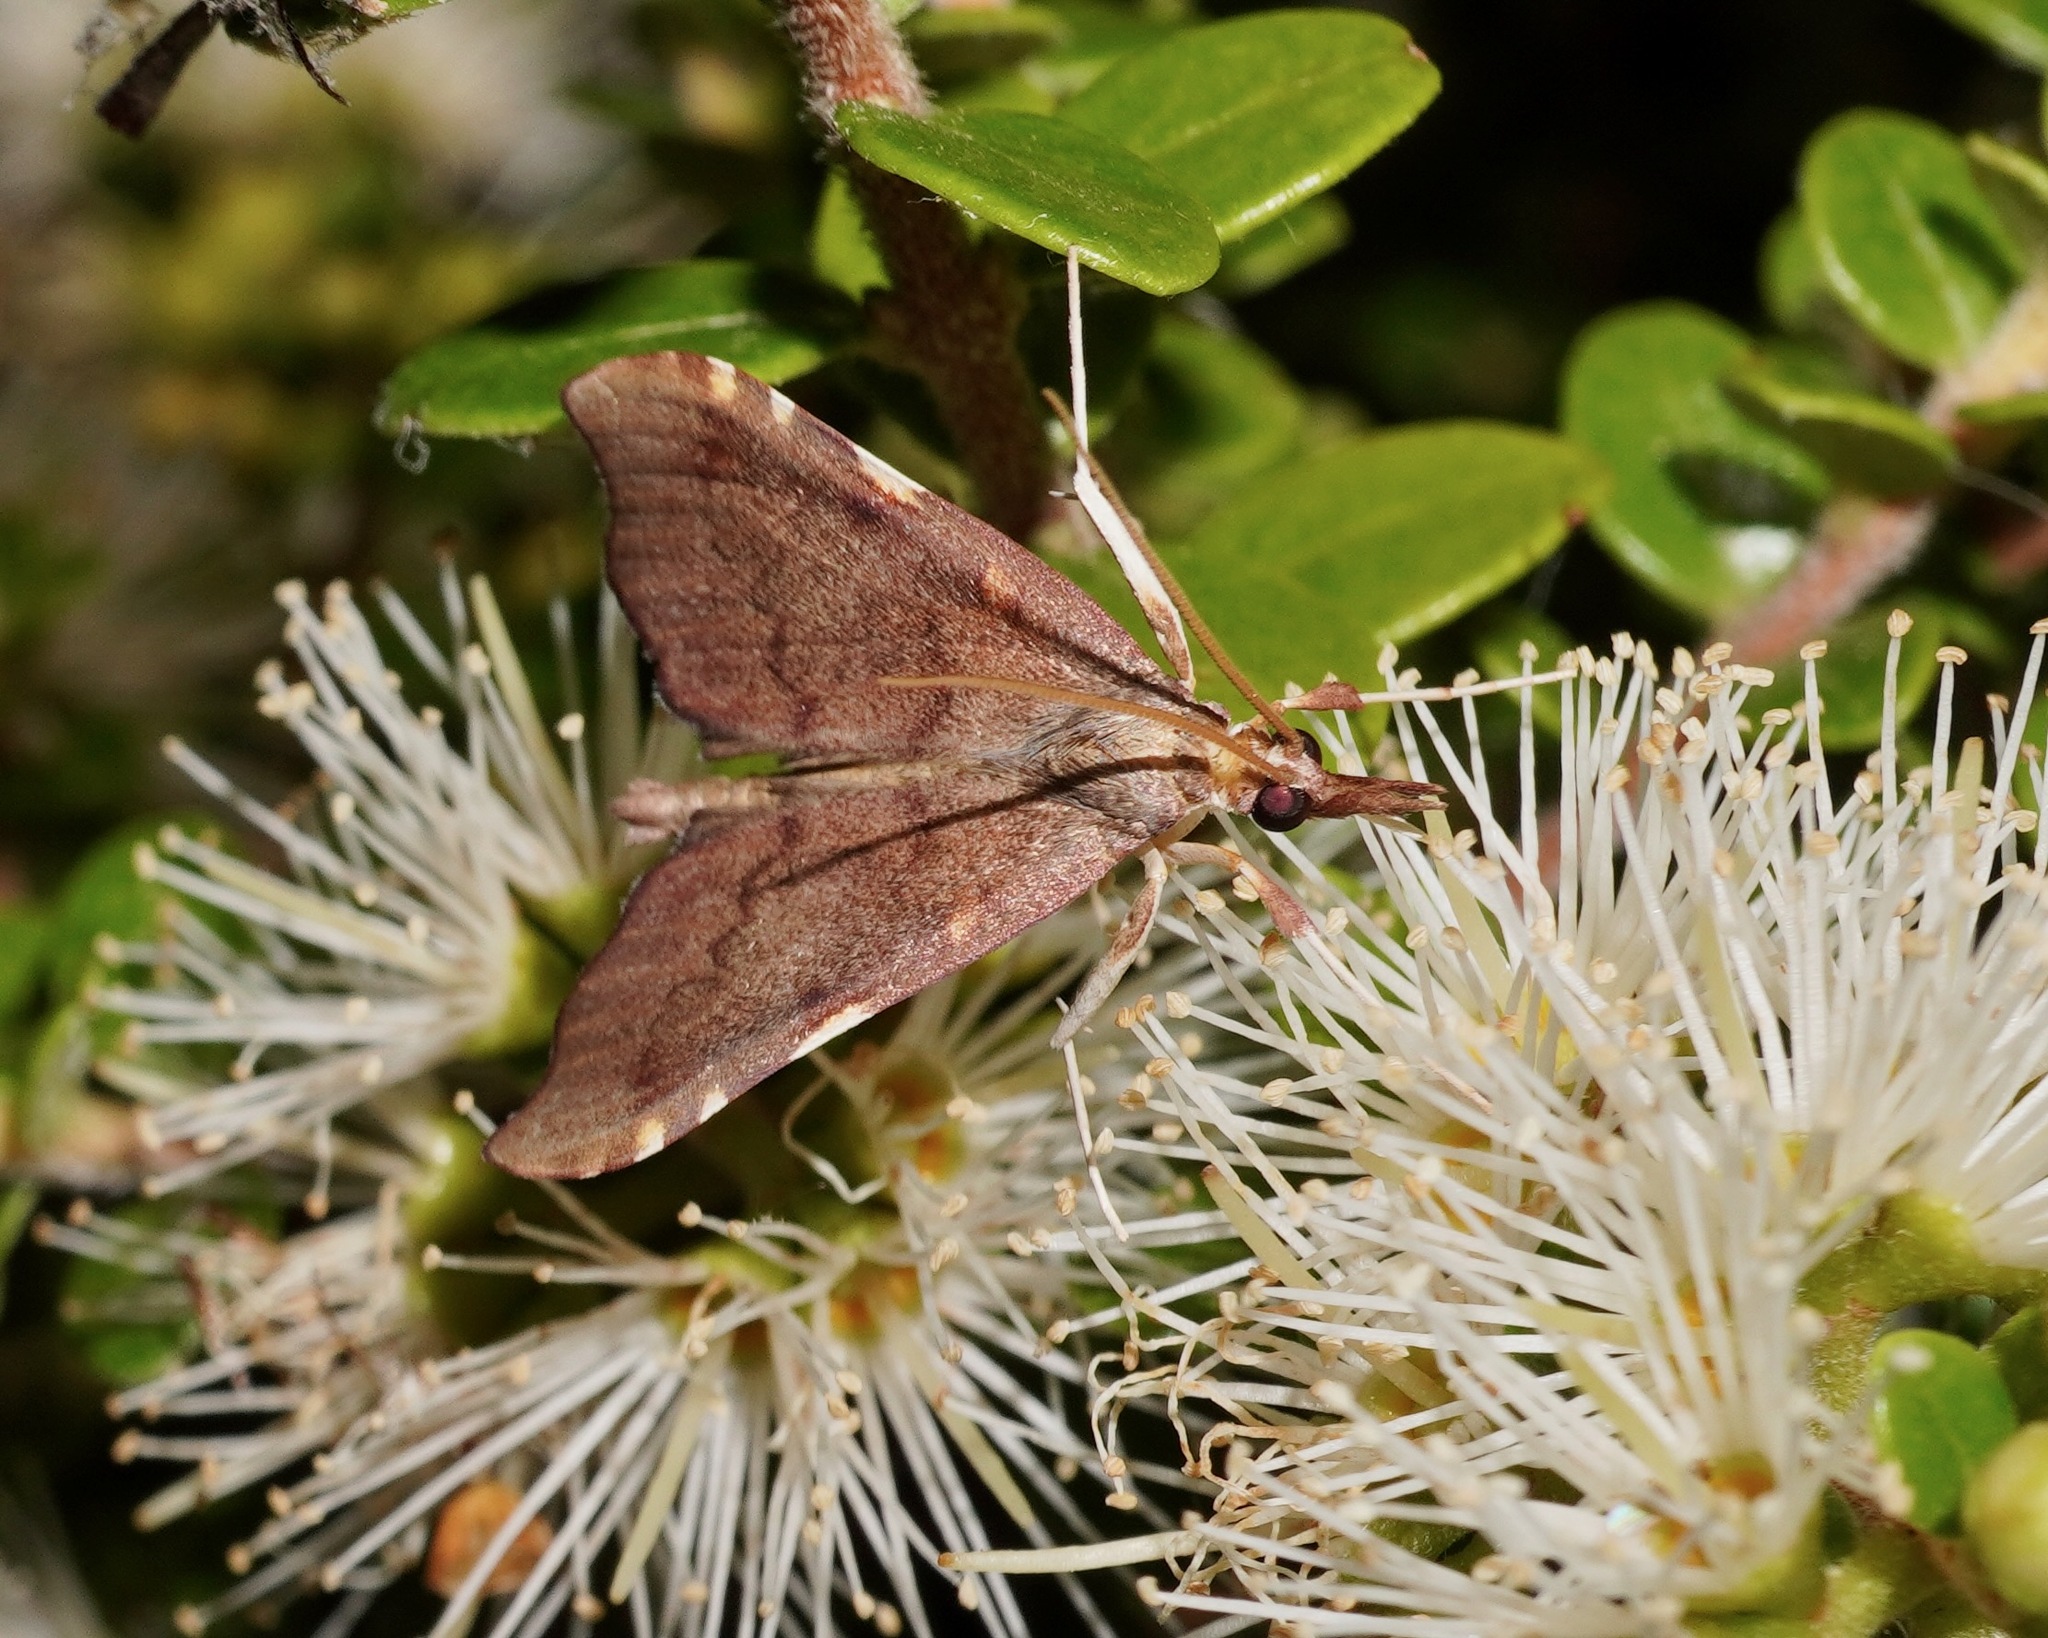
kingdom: Animalia
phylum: Arthropoda
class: Insecta
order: Lepidoptera
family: Crambidae
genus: Deana
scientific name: Deana hybreasalis
